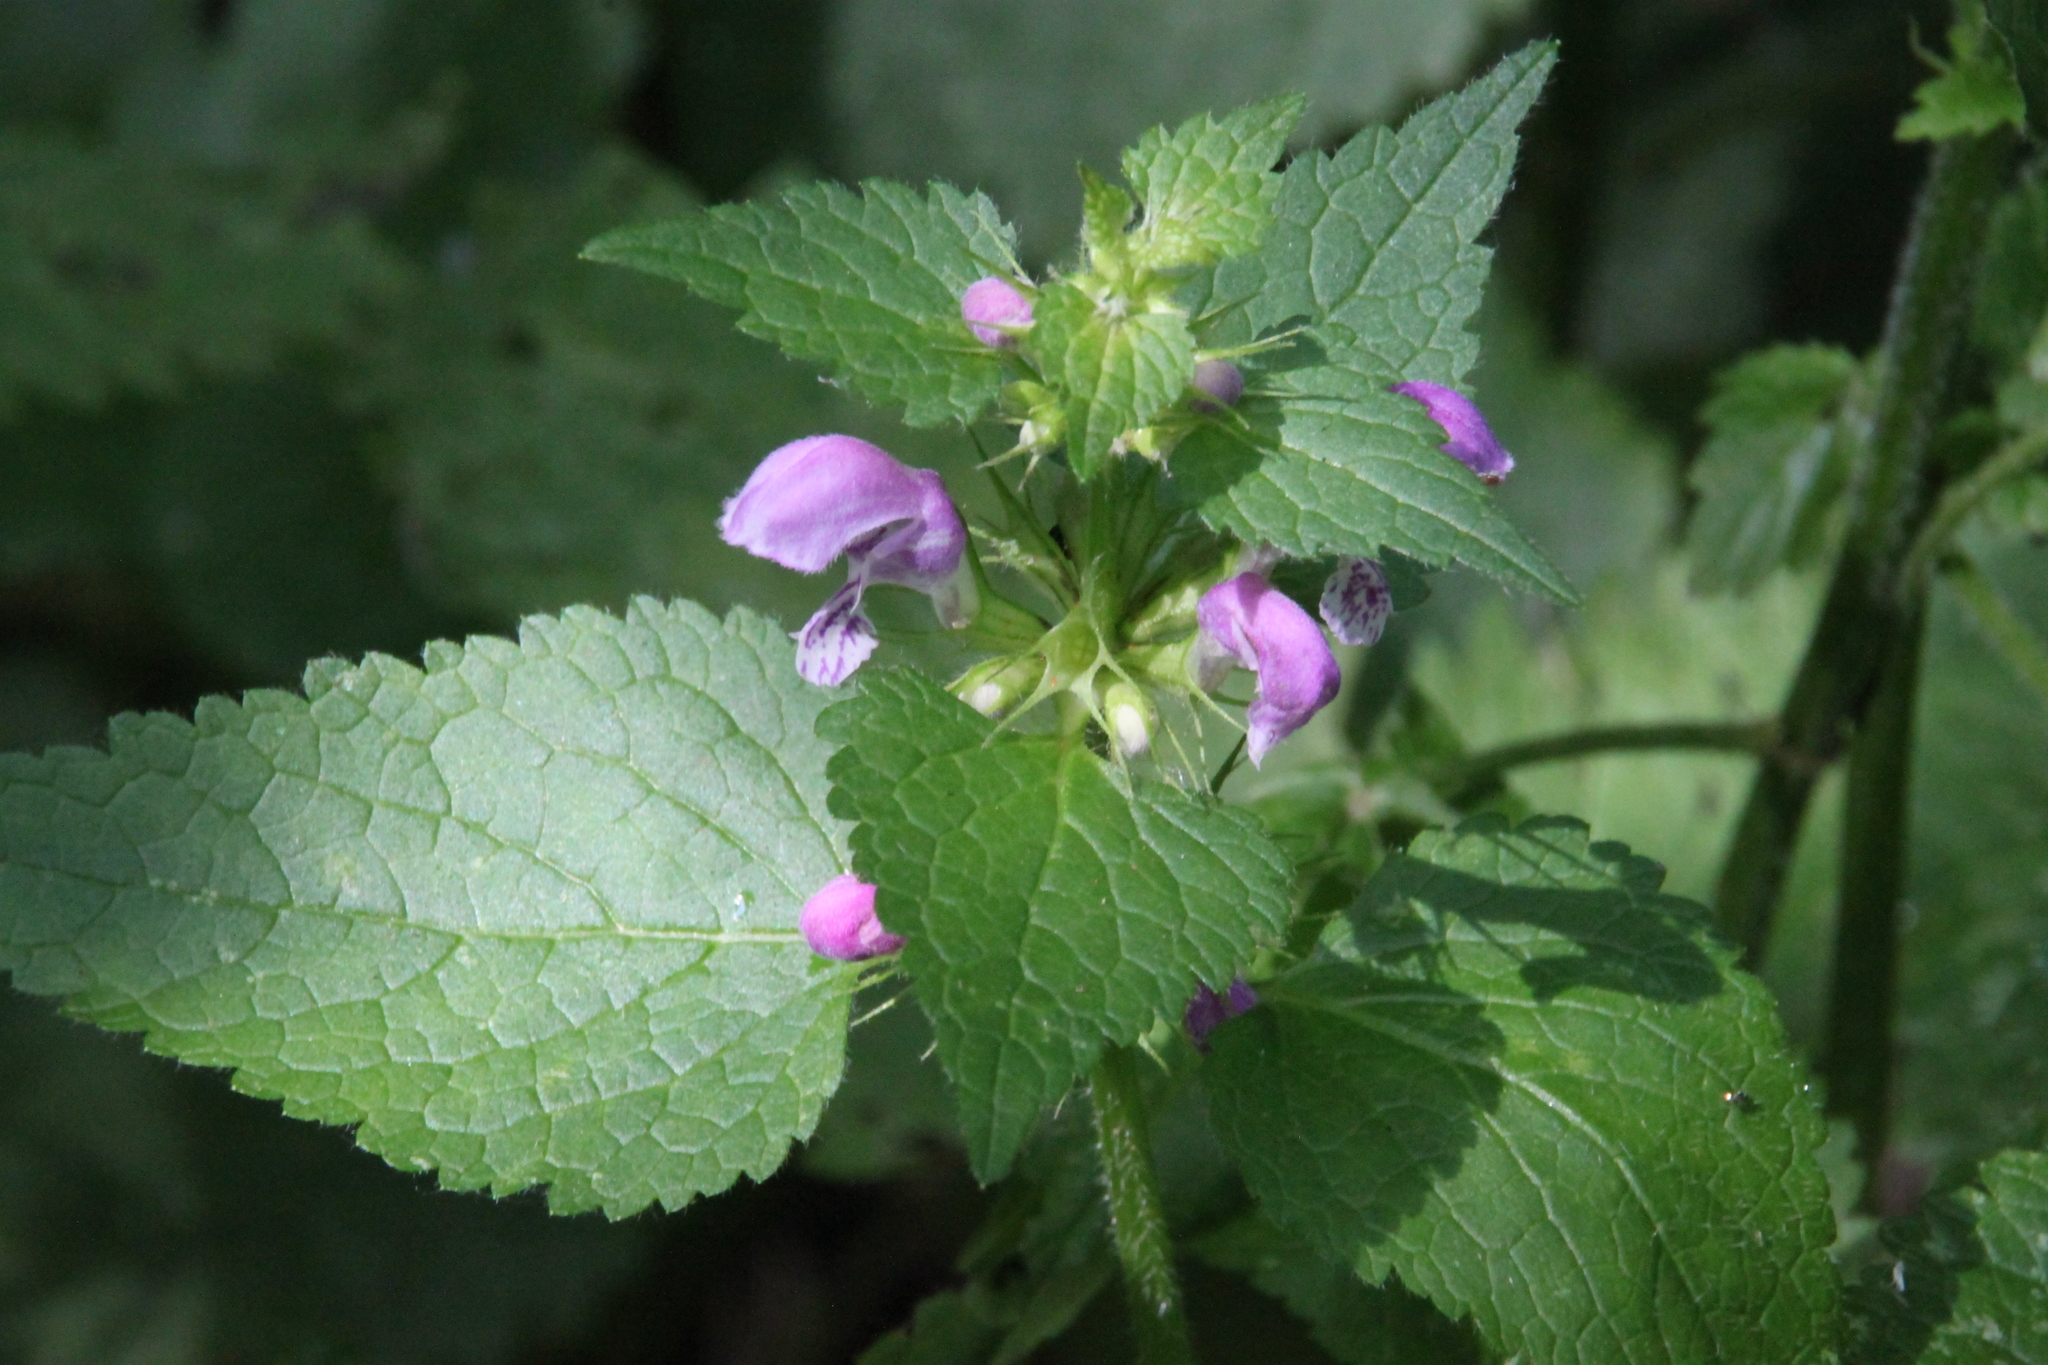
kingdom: Plantae
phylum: Tracheophyta
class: Magnoliopsida
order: Lamiales
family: Lamiaceae
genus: Lamium
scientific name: Lamium maculatum
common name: Spotted dead-nettle
